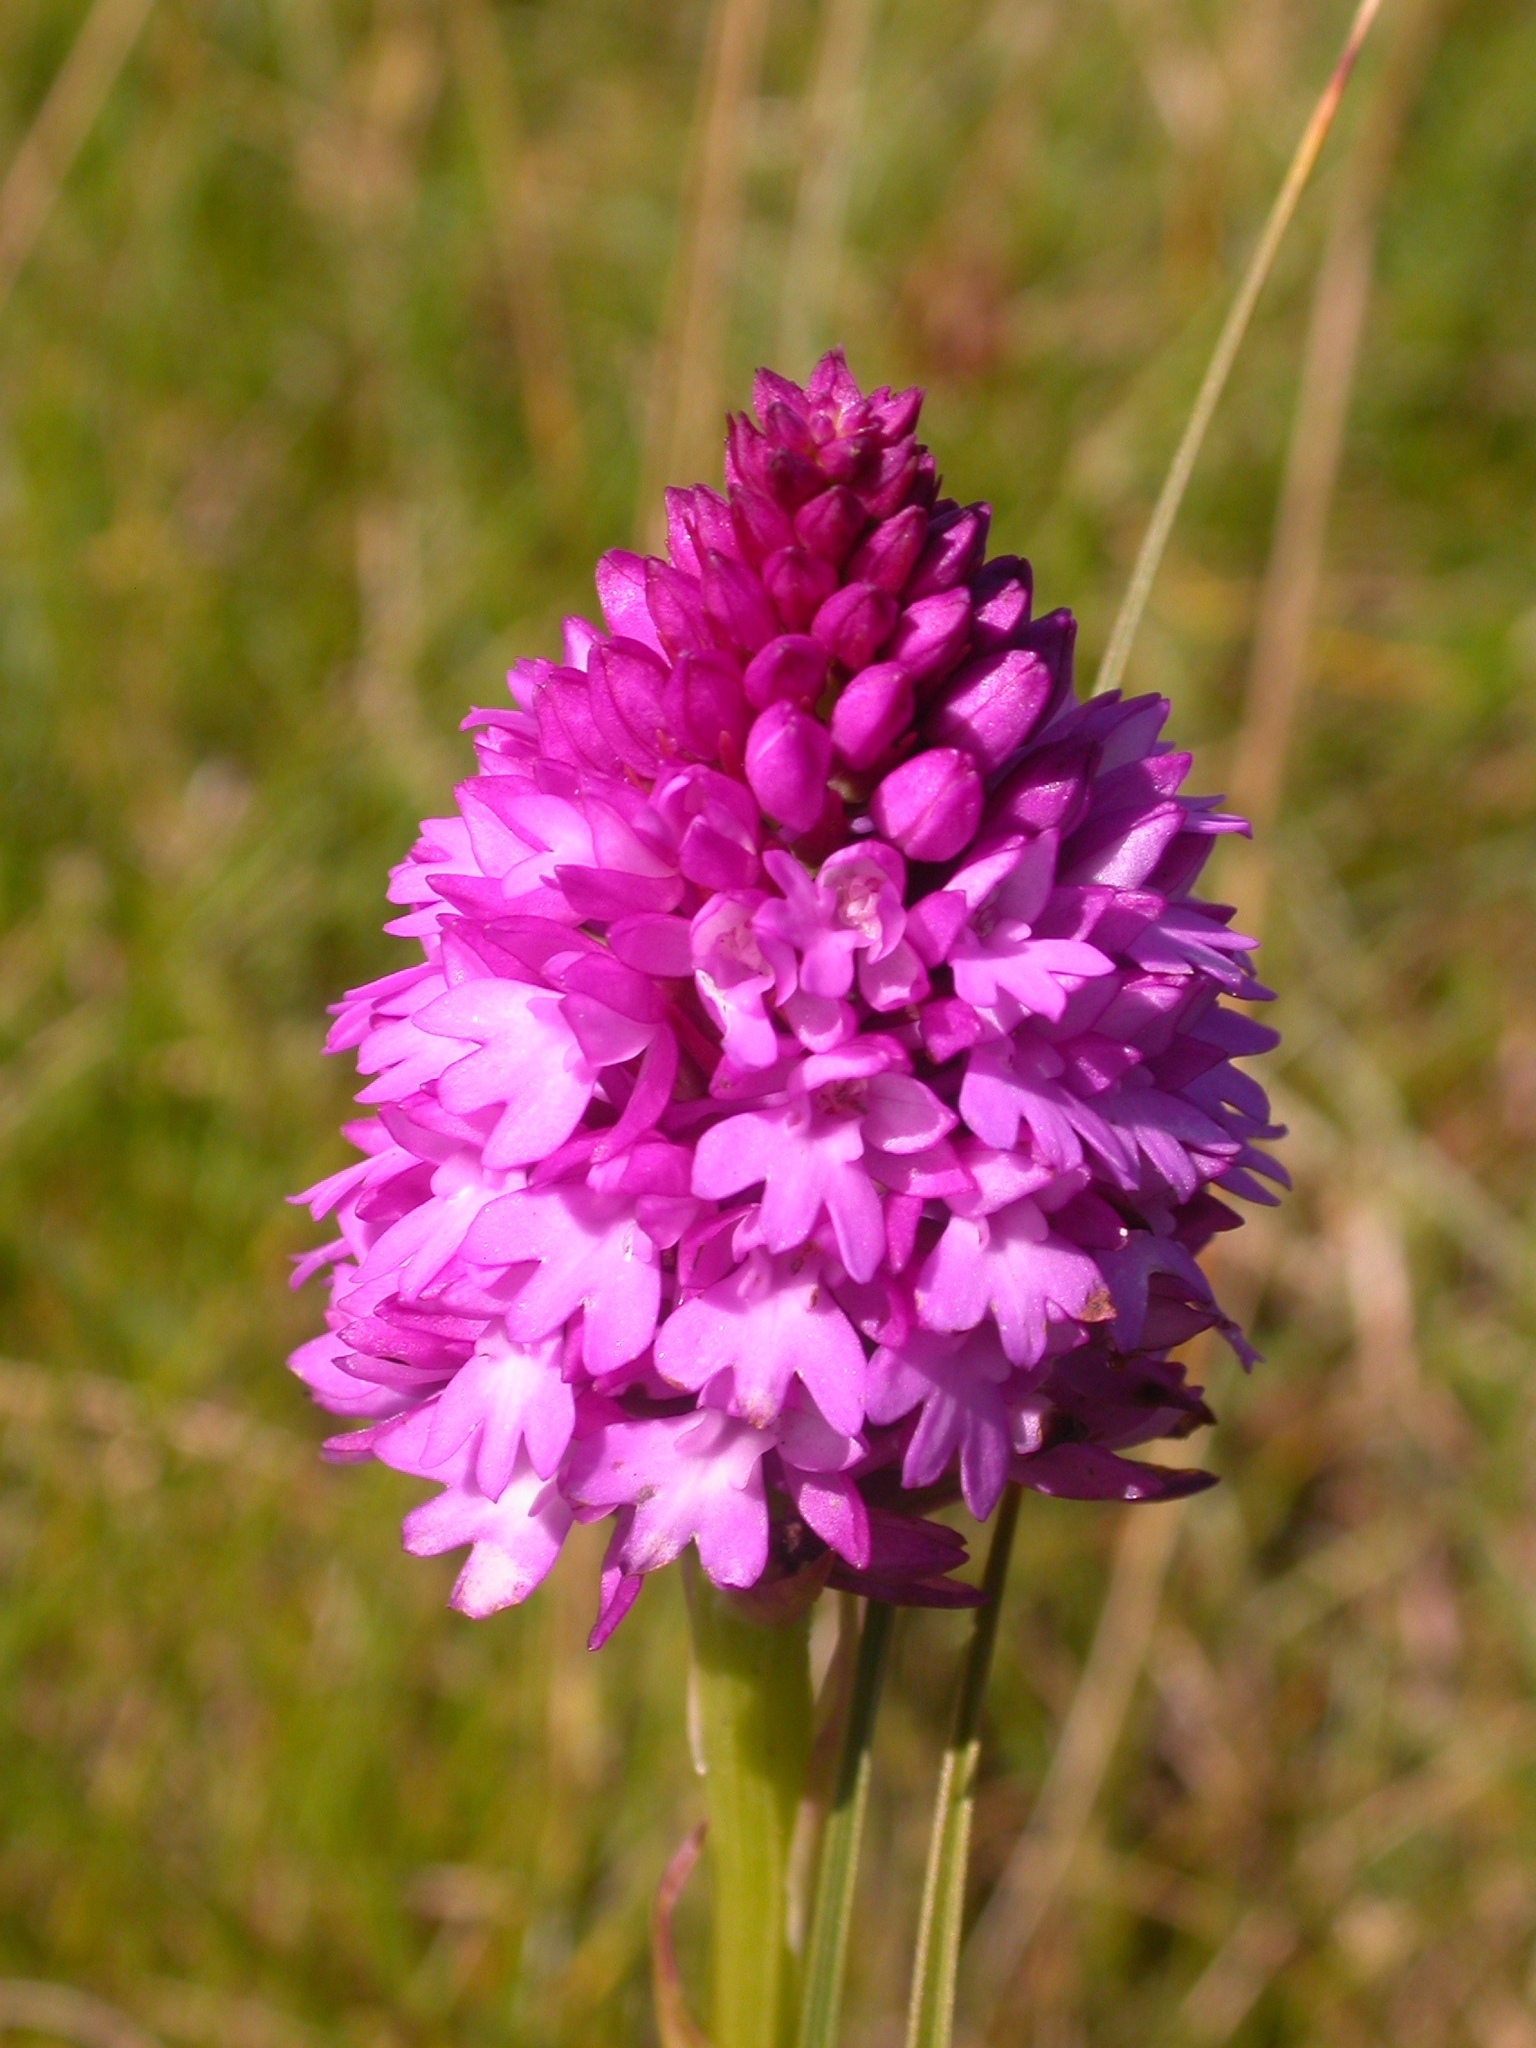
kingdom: Plantae
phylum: Tracheophyta
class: Liliopsida
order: Asparagales
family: Orchidaceae
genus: Anacamptis
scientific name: Anacamptis pyramidalis
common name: Pyramidal orchid
